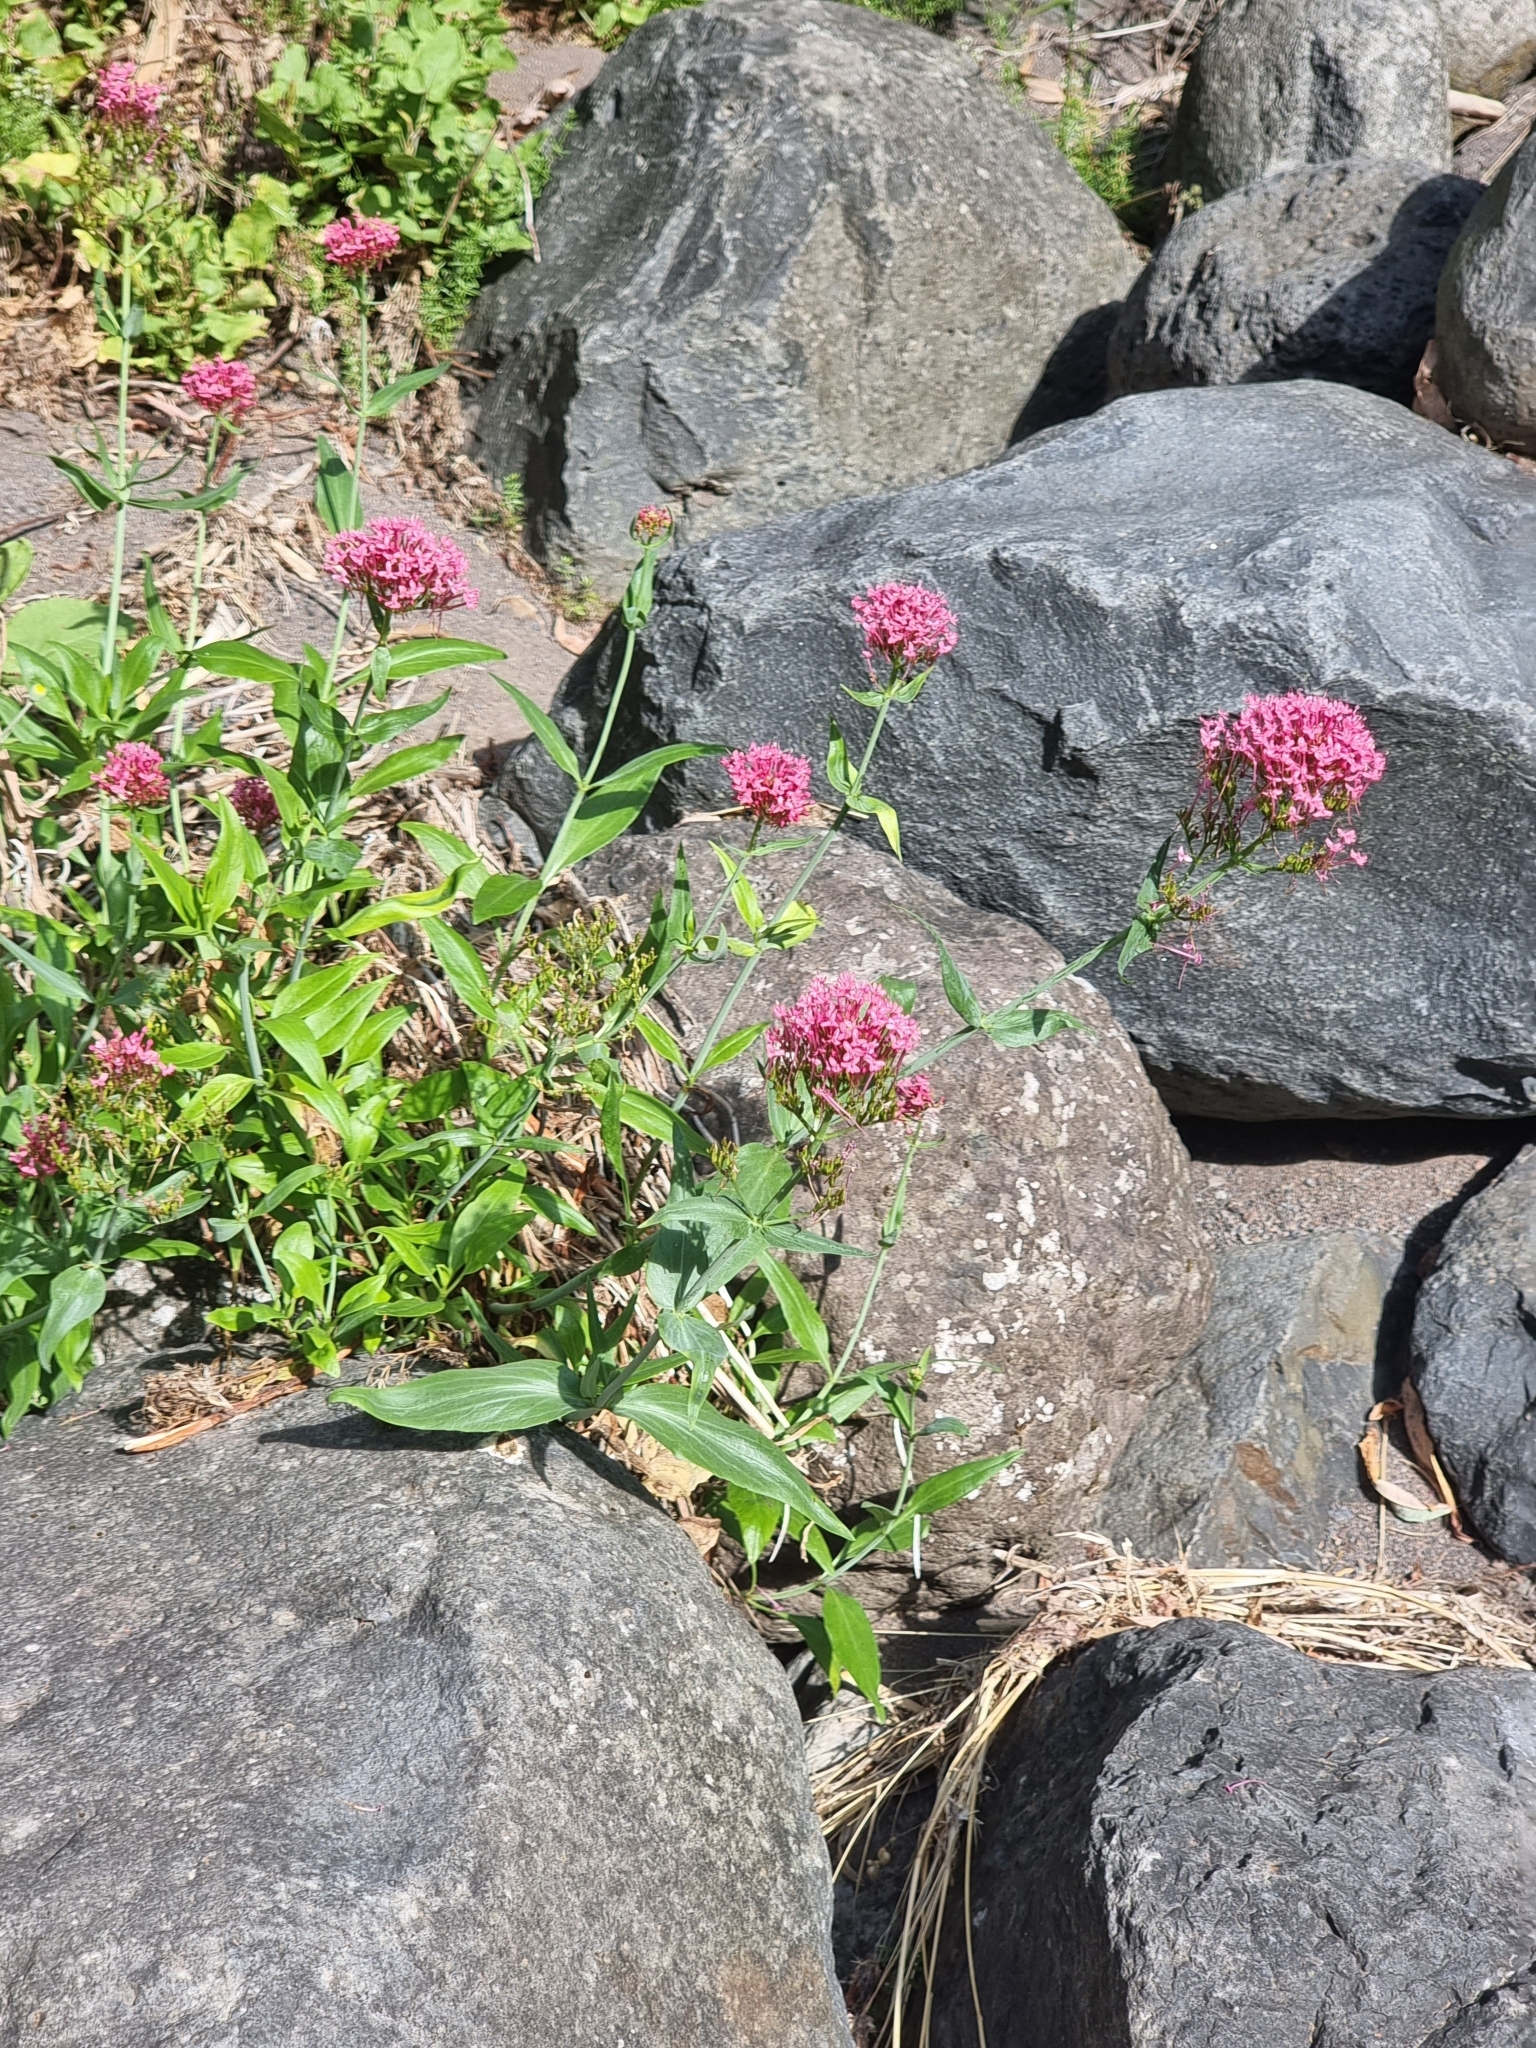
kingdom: Plantae
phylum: Tracheophyta
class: Magnoliopsida
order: Dipsacales
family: Caprifoliaceae
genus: Centranthus
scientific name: Centranthus ruber
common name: Red valerian
